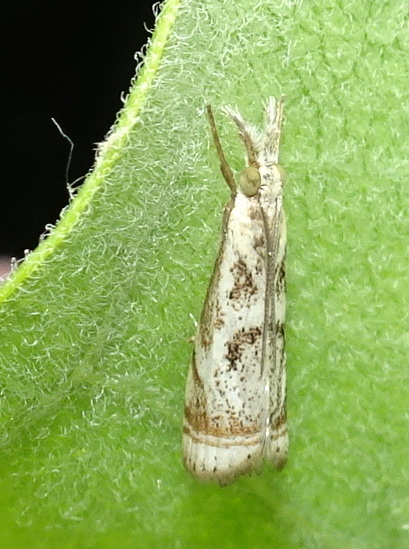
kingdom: Animalia
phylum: Arthropoda
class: Insecta
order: Lepidoptera
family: Crambidae
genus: Microcrambus
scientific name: Microcrambus elegans
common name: Elegant grass-veneer
